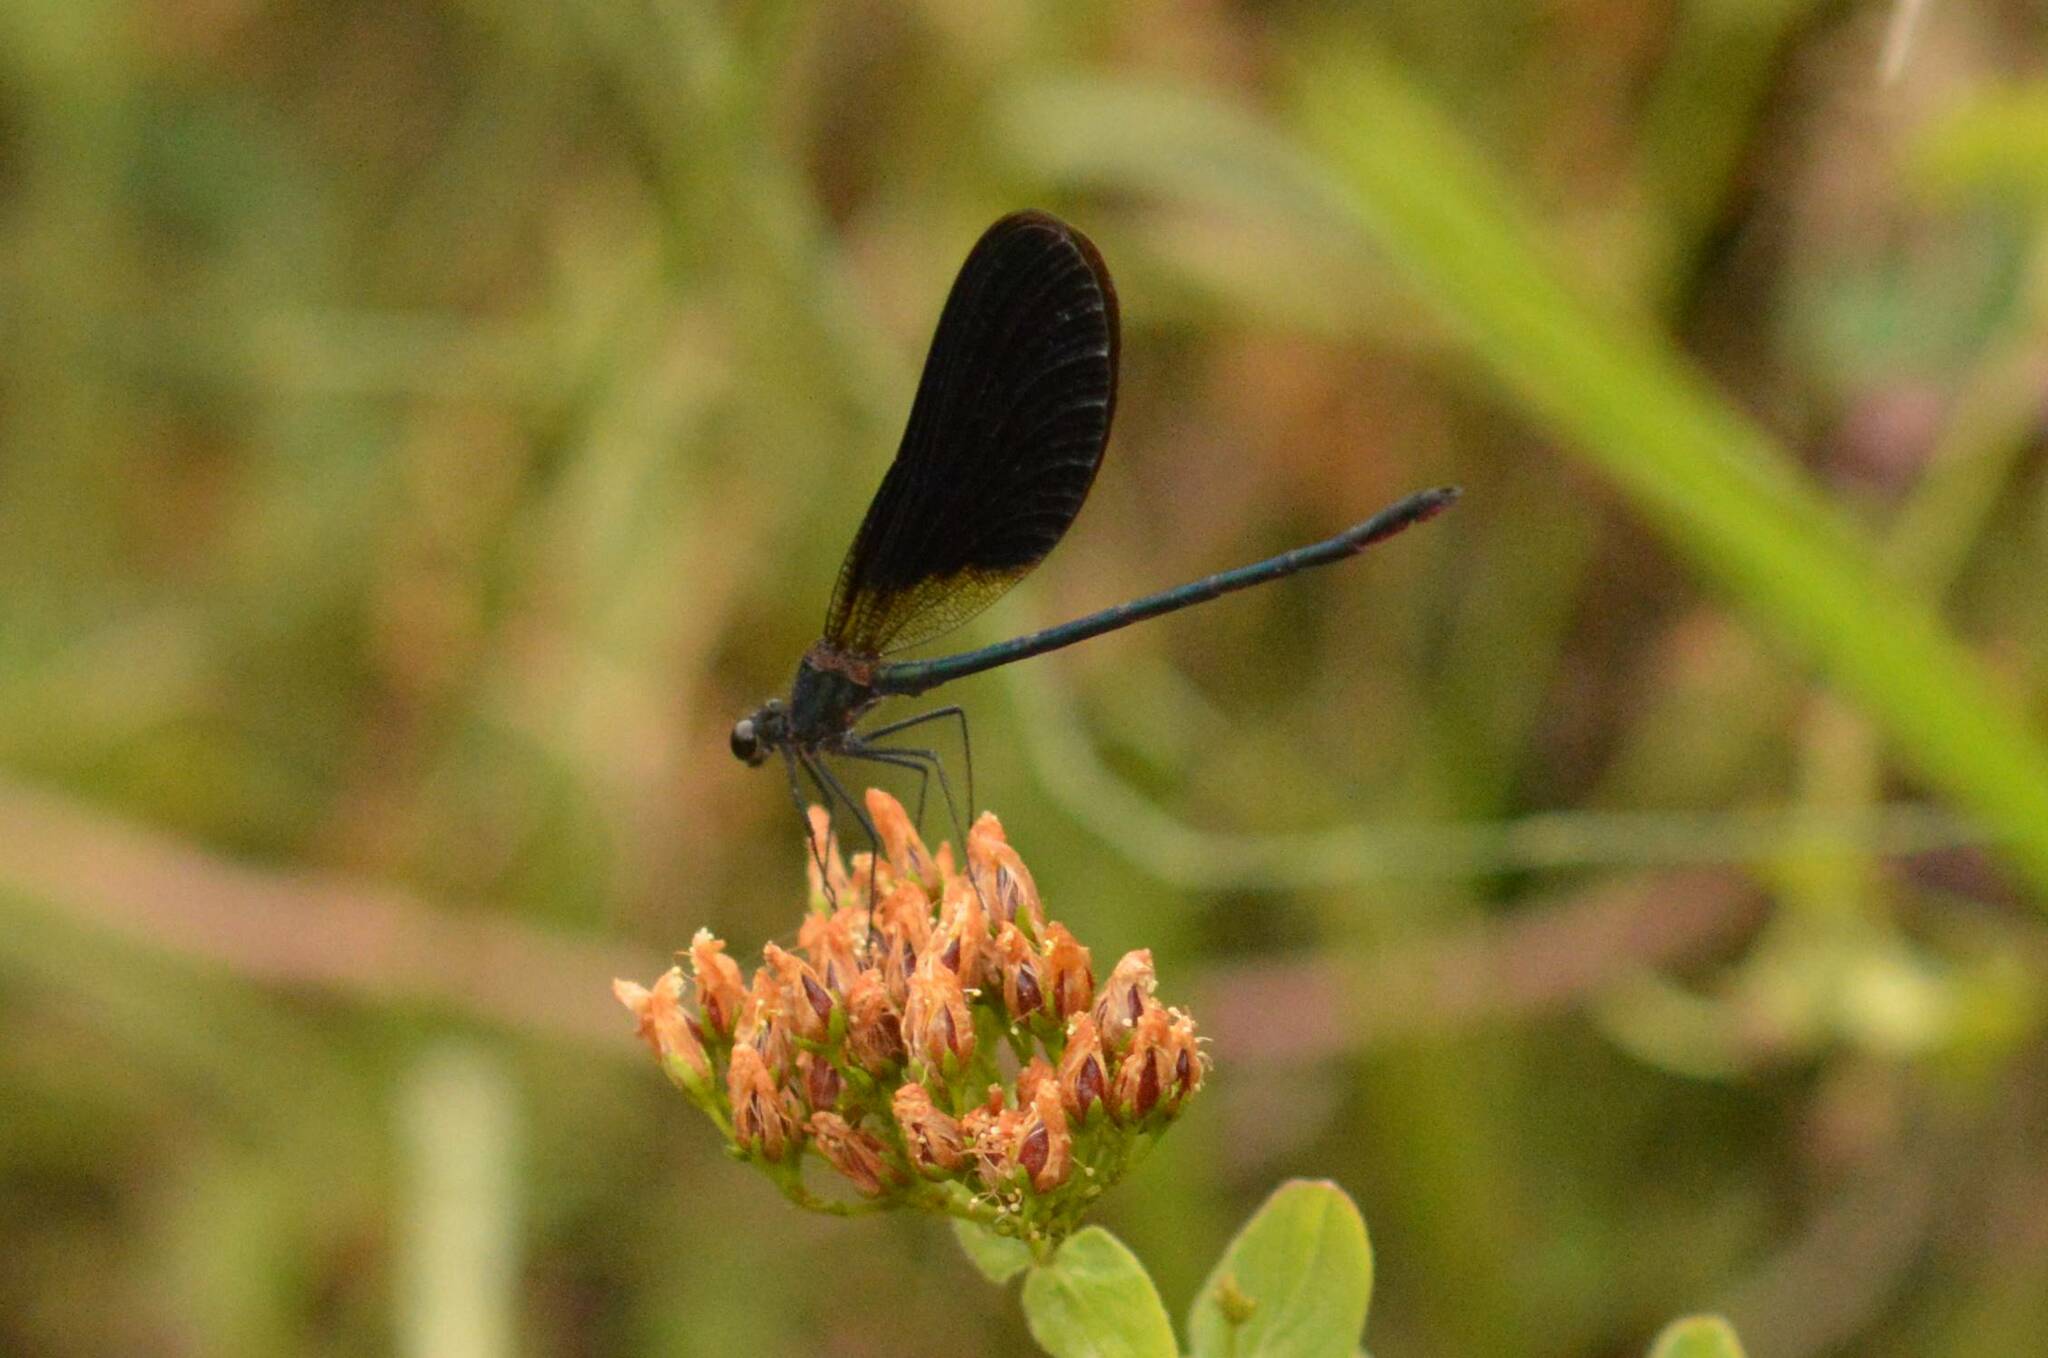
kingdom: Animalia
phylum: Arthropoda
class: Insecta
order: Odonata
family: Calopterygidae
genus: Calopteryx
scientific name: Calopteryx haemorrhoidalis
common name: Copper demoiselle
